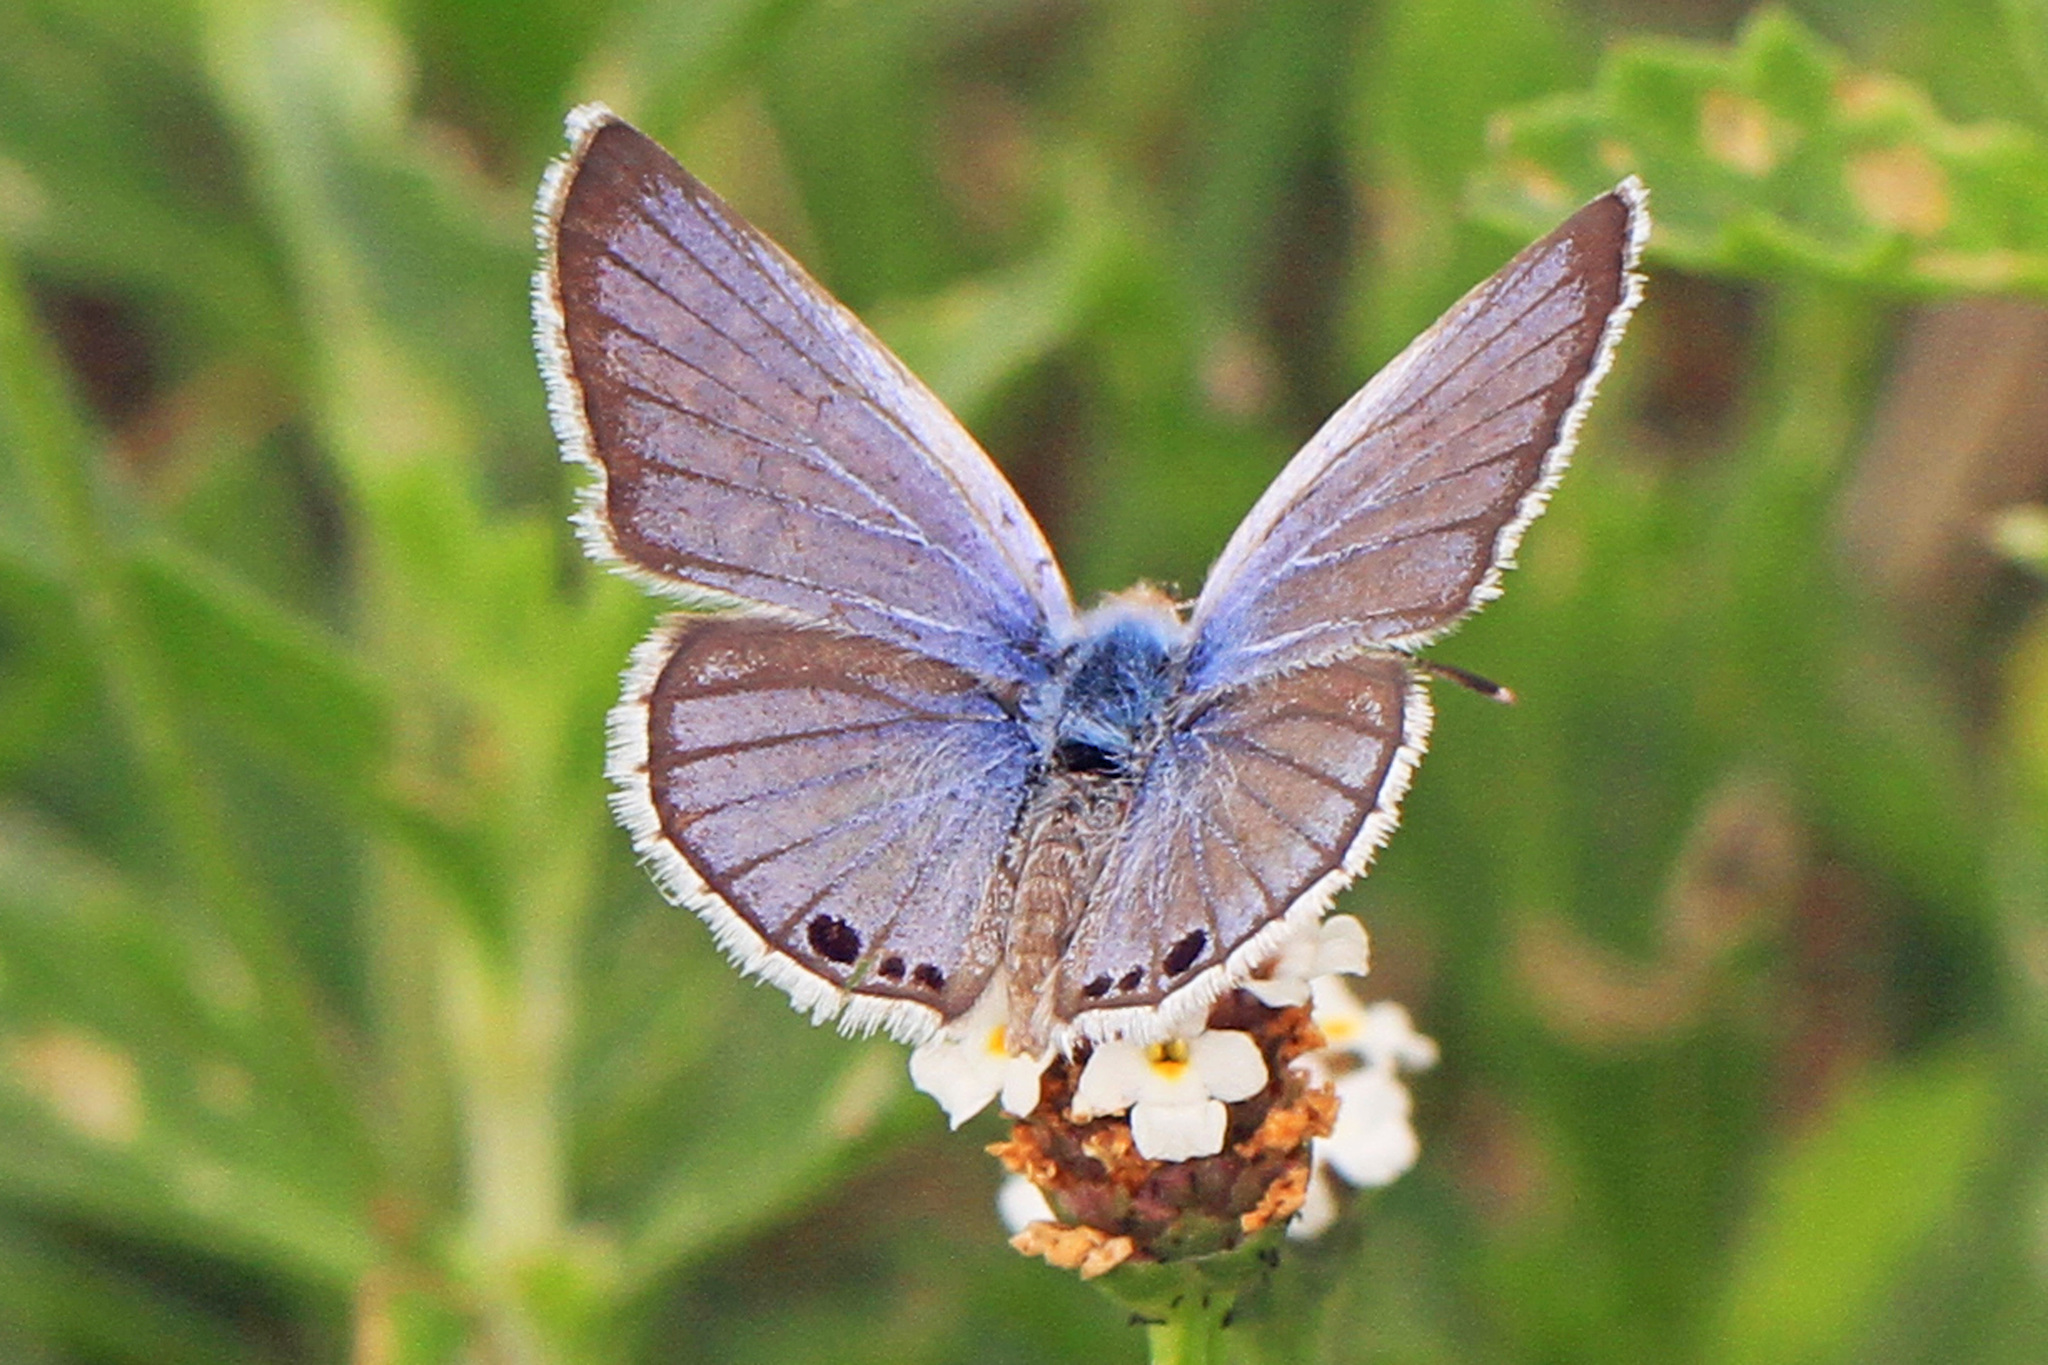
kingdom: Animalia
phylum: Arthropoda
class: Insecta
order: Lepidoptera
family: Lycaenidae
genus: Echinargus
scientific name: Echinargus isola
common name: Reakirt's blue
